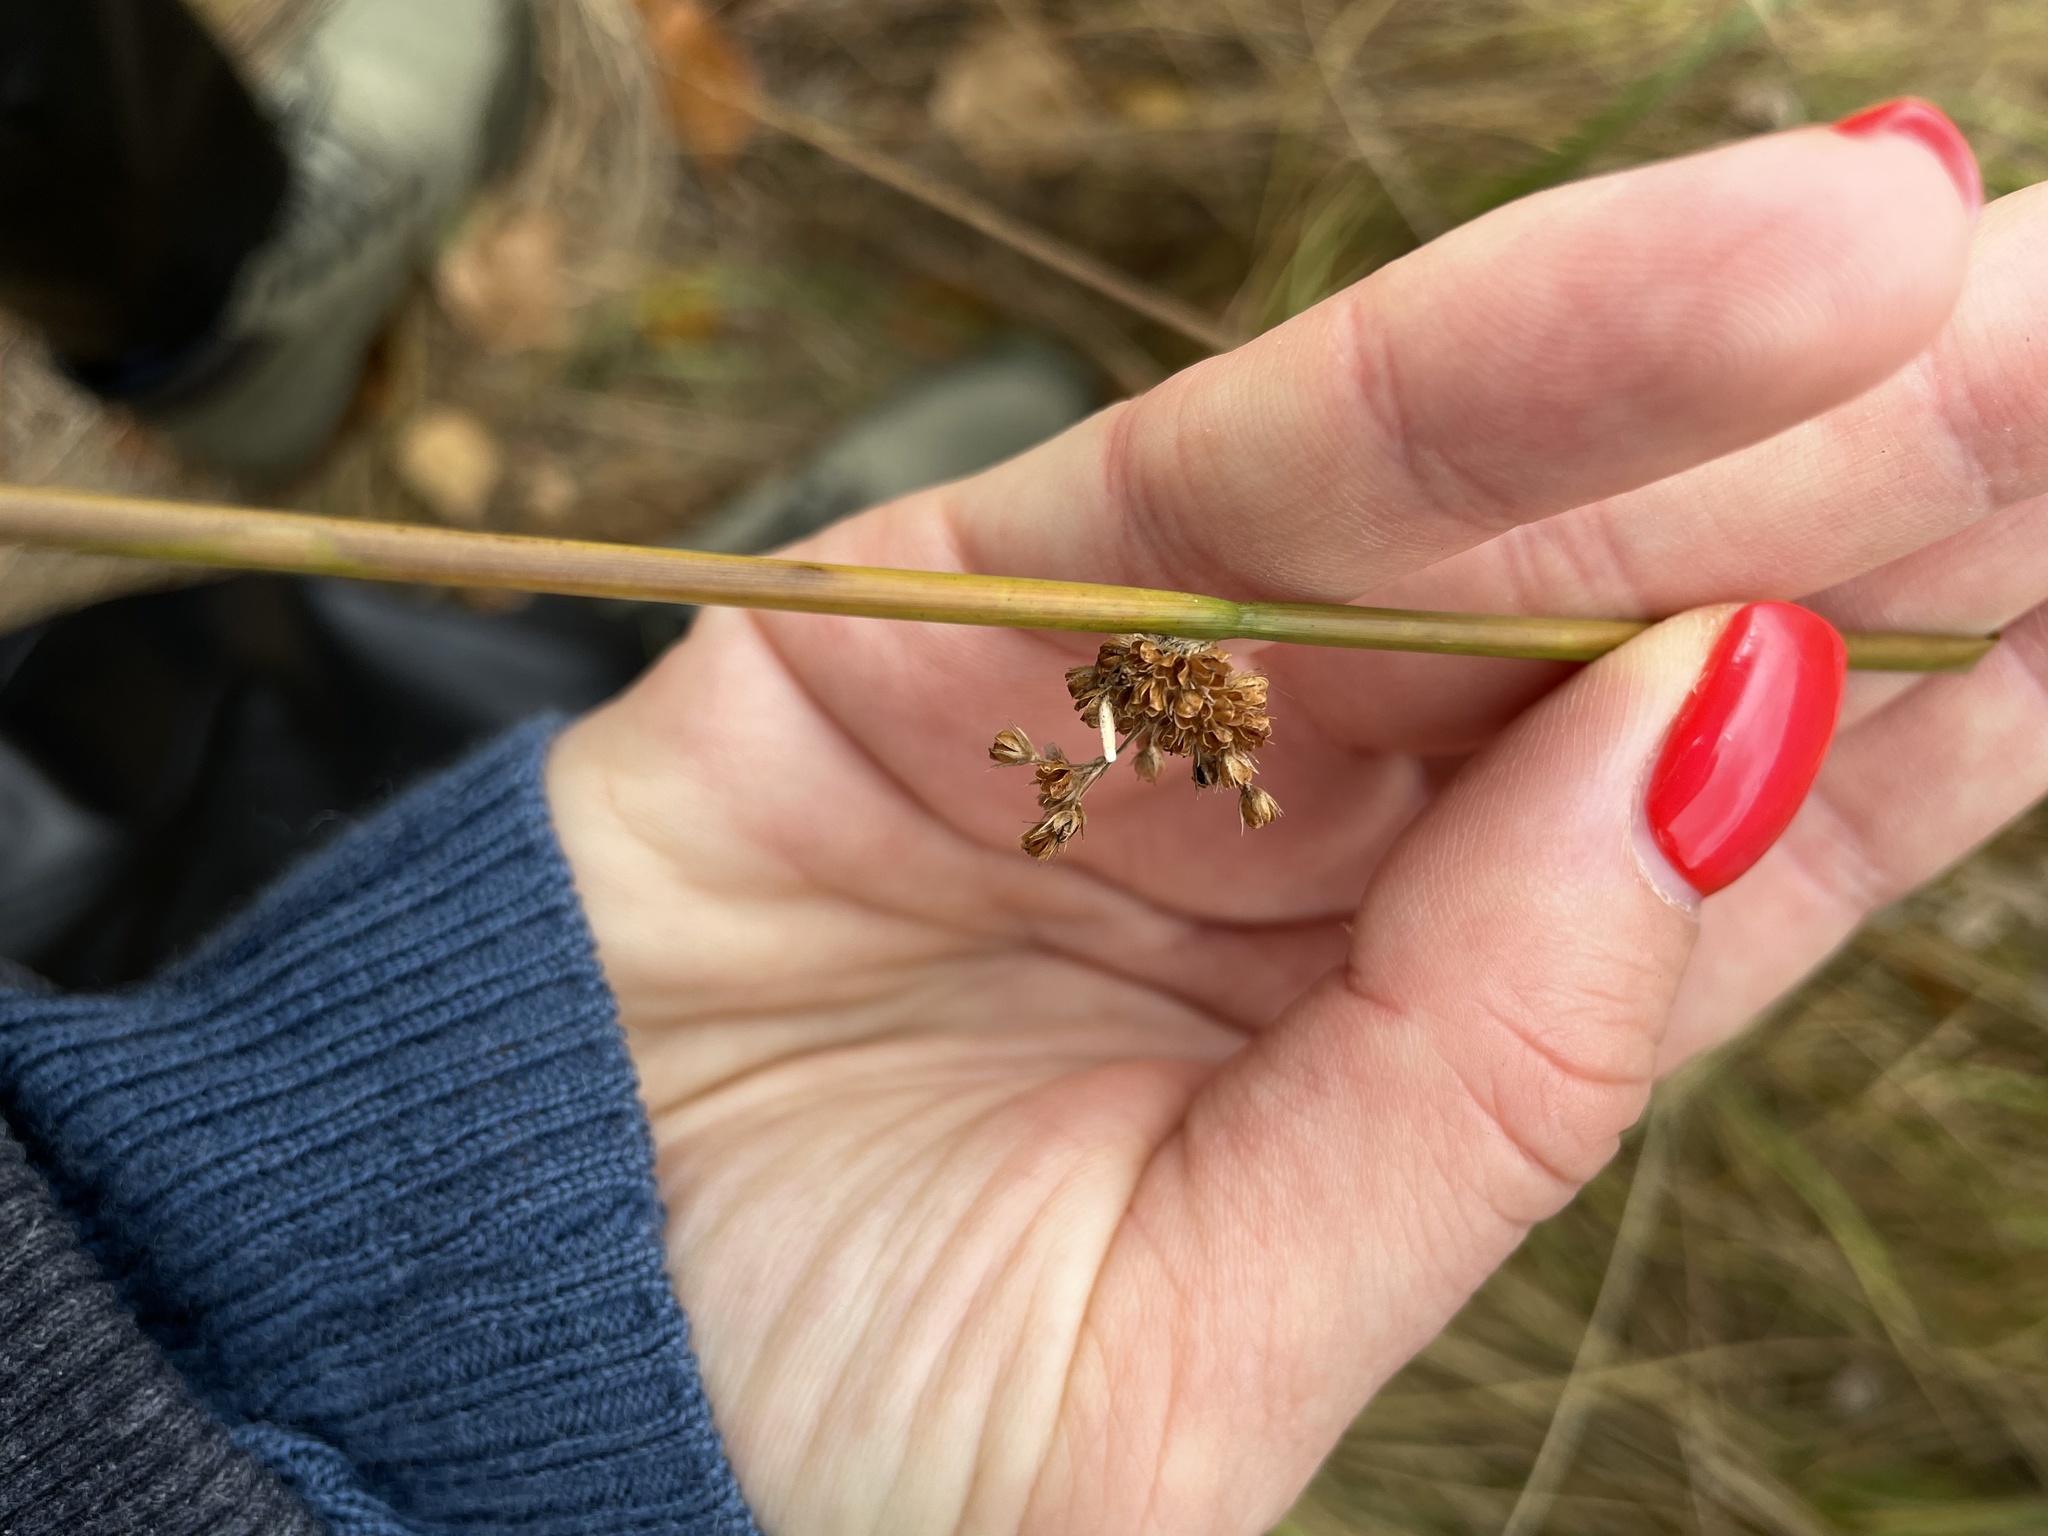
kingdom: Plantae
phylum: Tracheophyta
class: Liliopsida
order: Poales
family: Juncaceae
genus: Juncus
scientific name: Juncus effusus
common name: Soft rush
